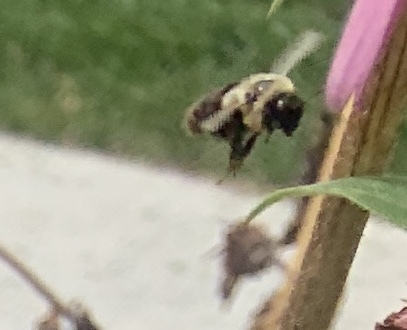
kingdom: Animalia
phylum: Arthropoda
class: Insecta
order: Hymenoptera
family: Apidae
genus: Bombus
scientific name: Bombus impatiens
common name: Common eastern bumble bee
